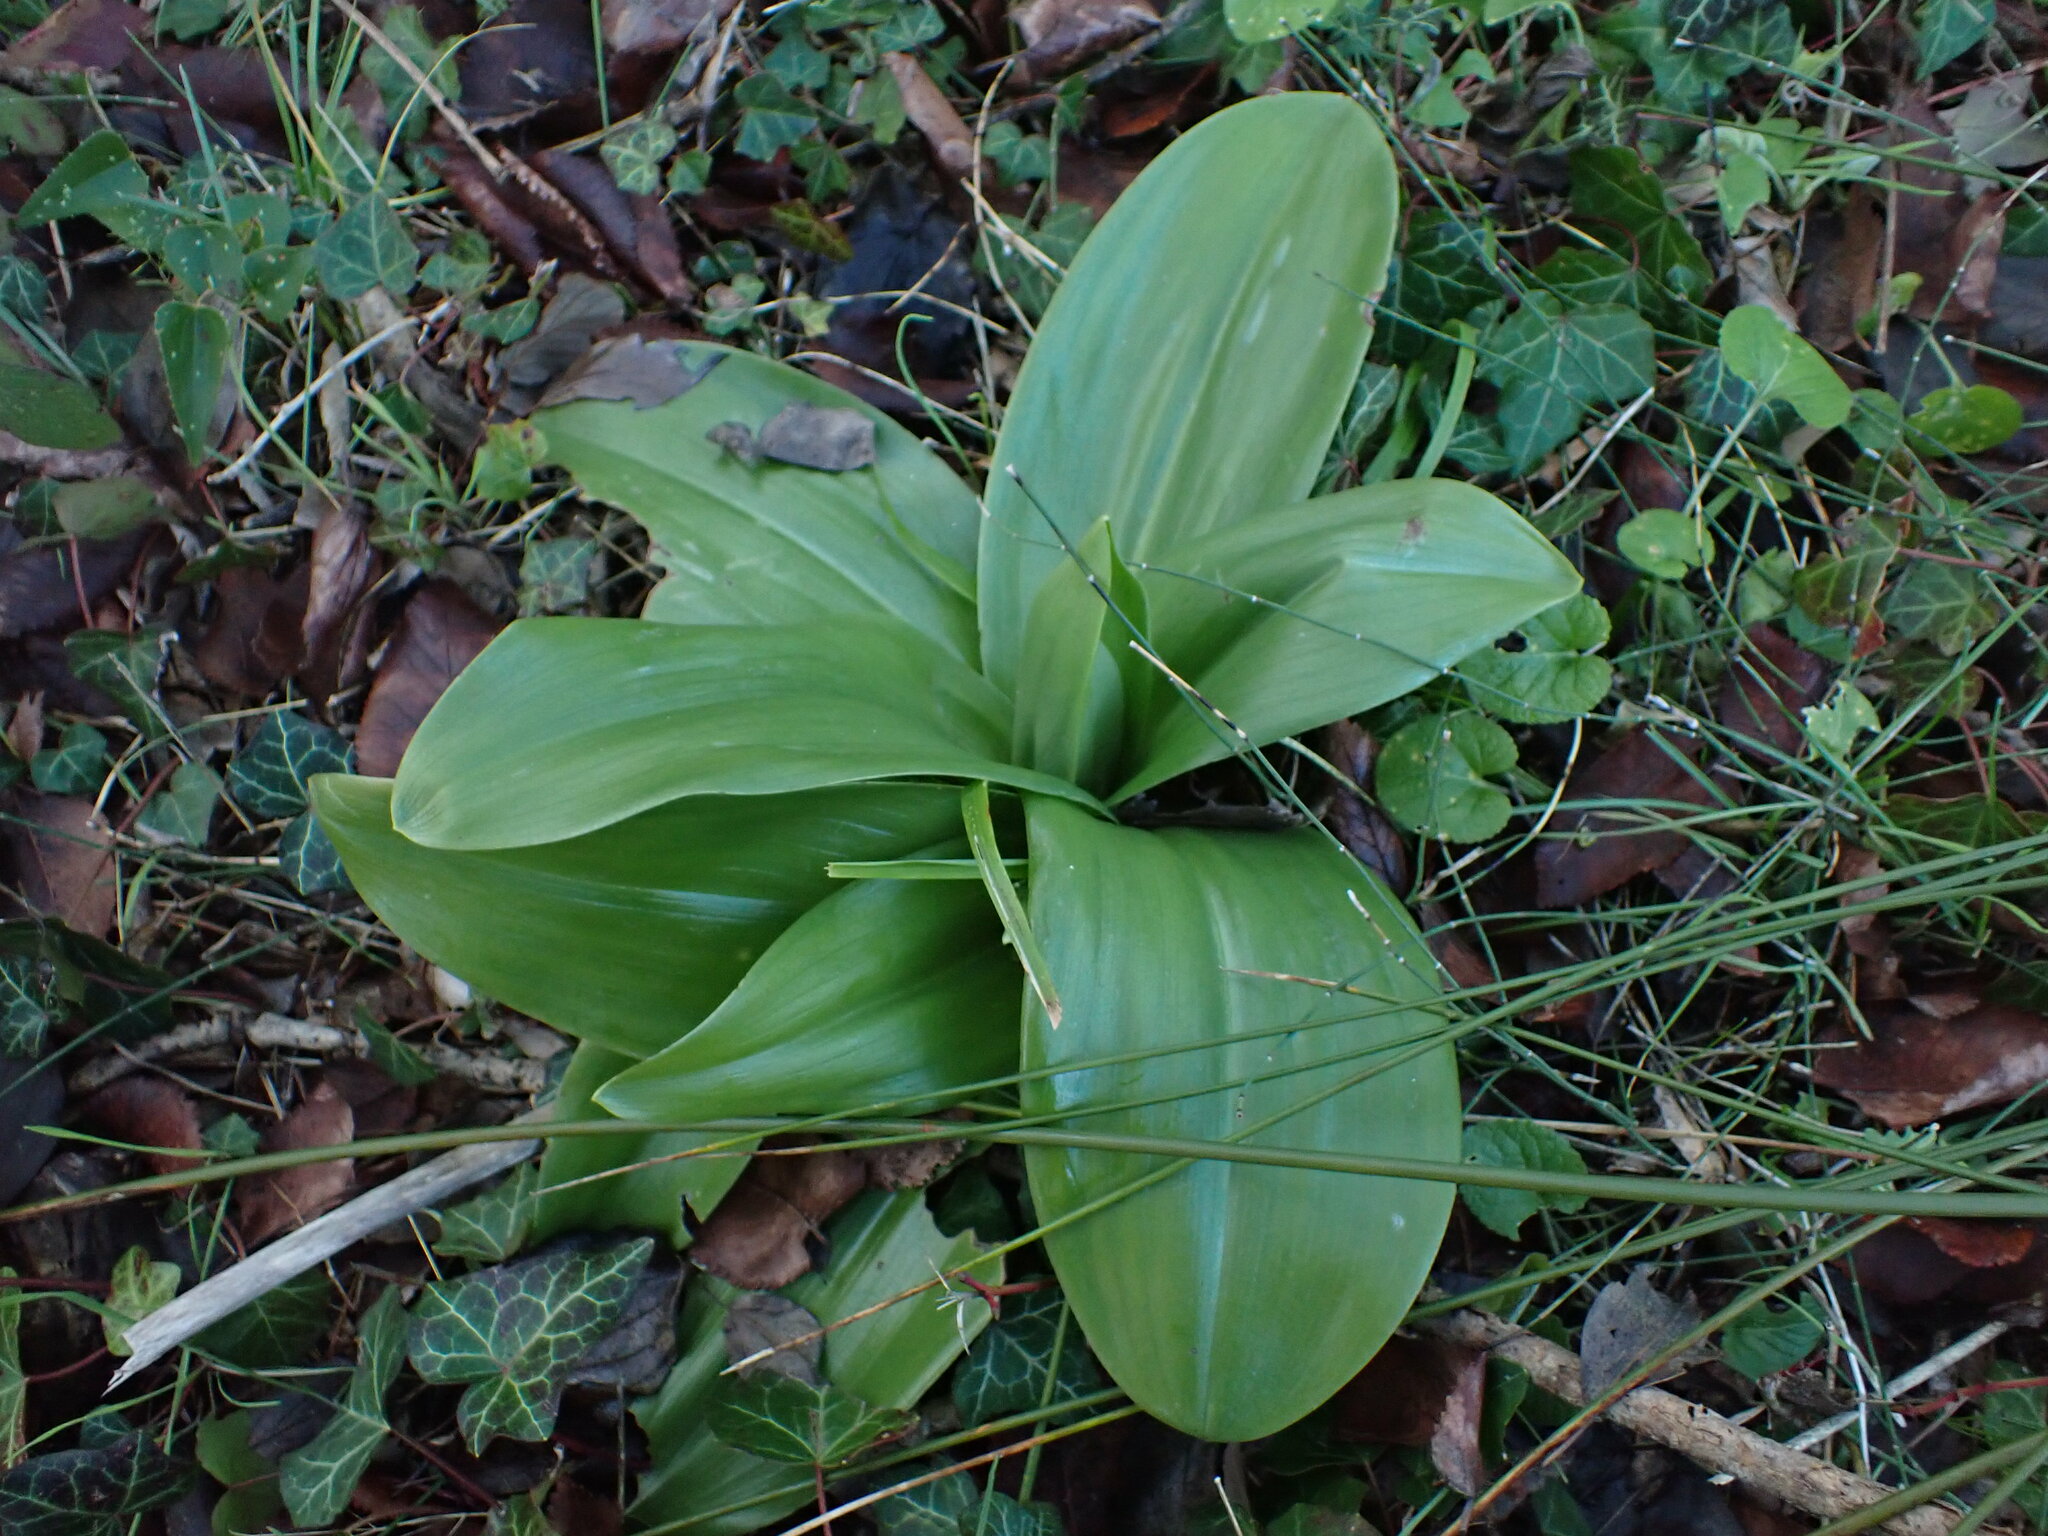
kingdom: Plantae
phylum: Tracheophyta
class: Liliopsida
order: Asparagales
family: Orchidaceae
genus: Himantoglossum
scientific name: Himantoglossum robertianum
